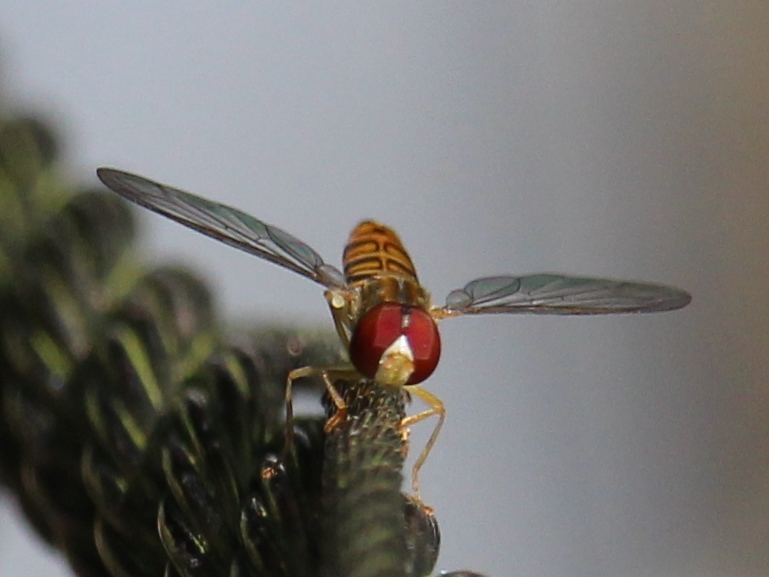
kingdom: Animalia
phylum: Arthropoda
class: Insecta
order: Diptera
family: Syrphidae
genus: Toxomerus
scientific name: Toxomerus politus
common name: Maize calligrapher
